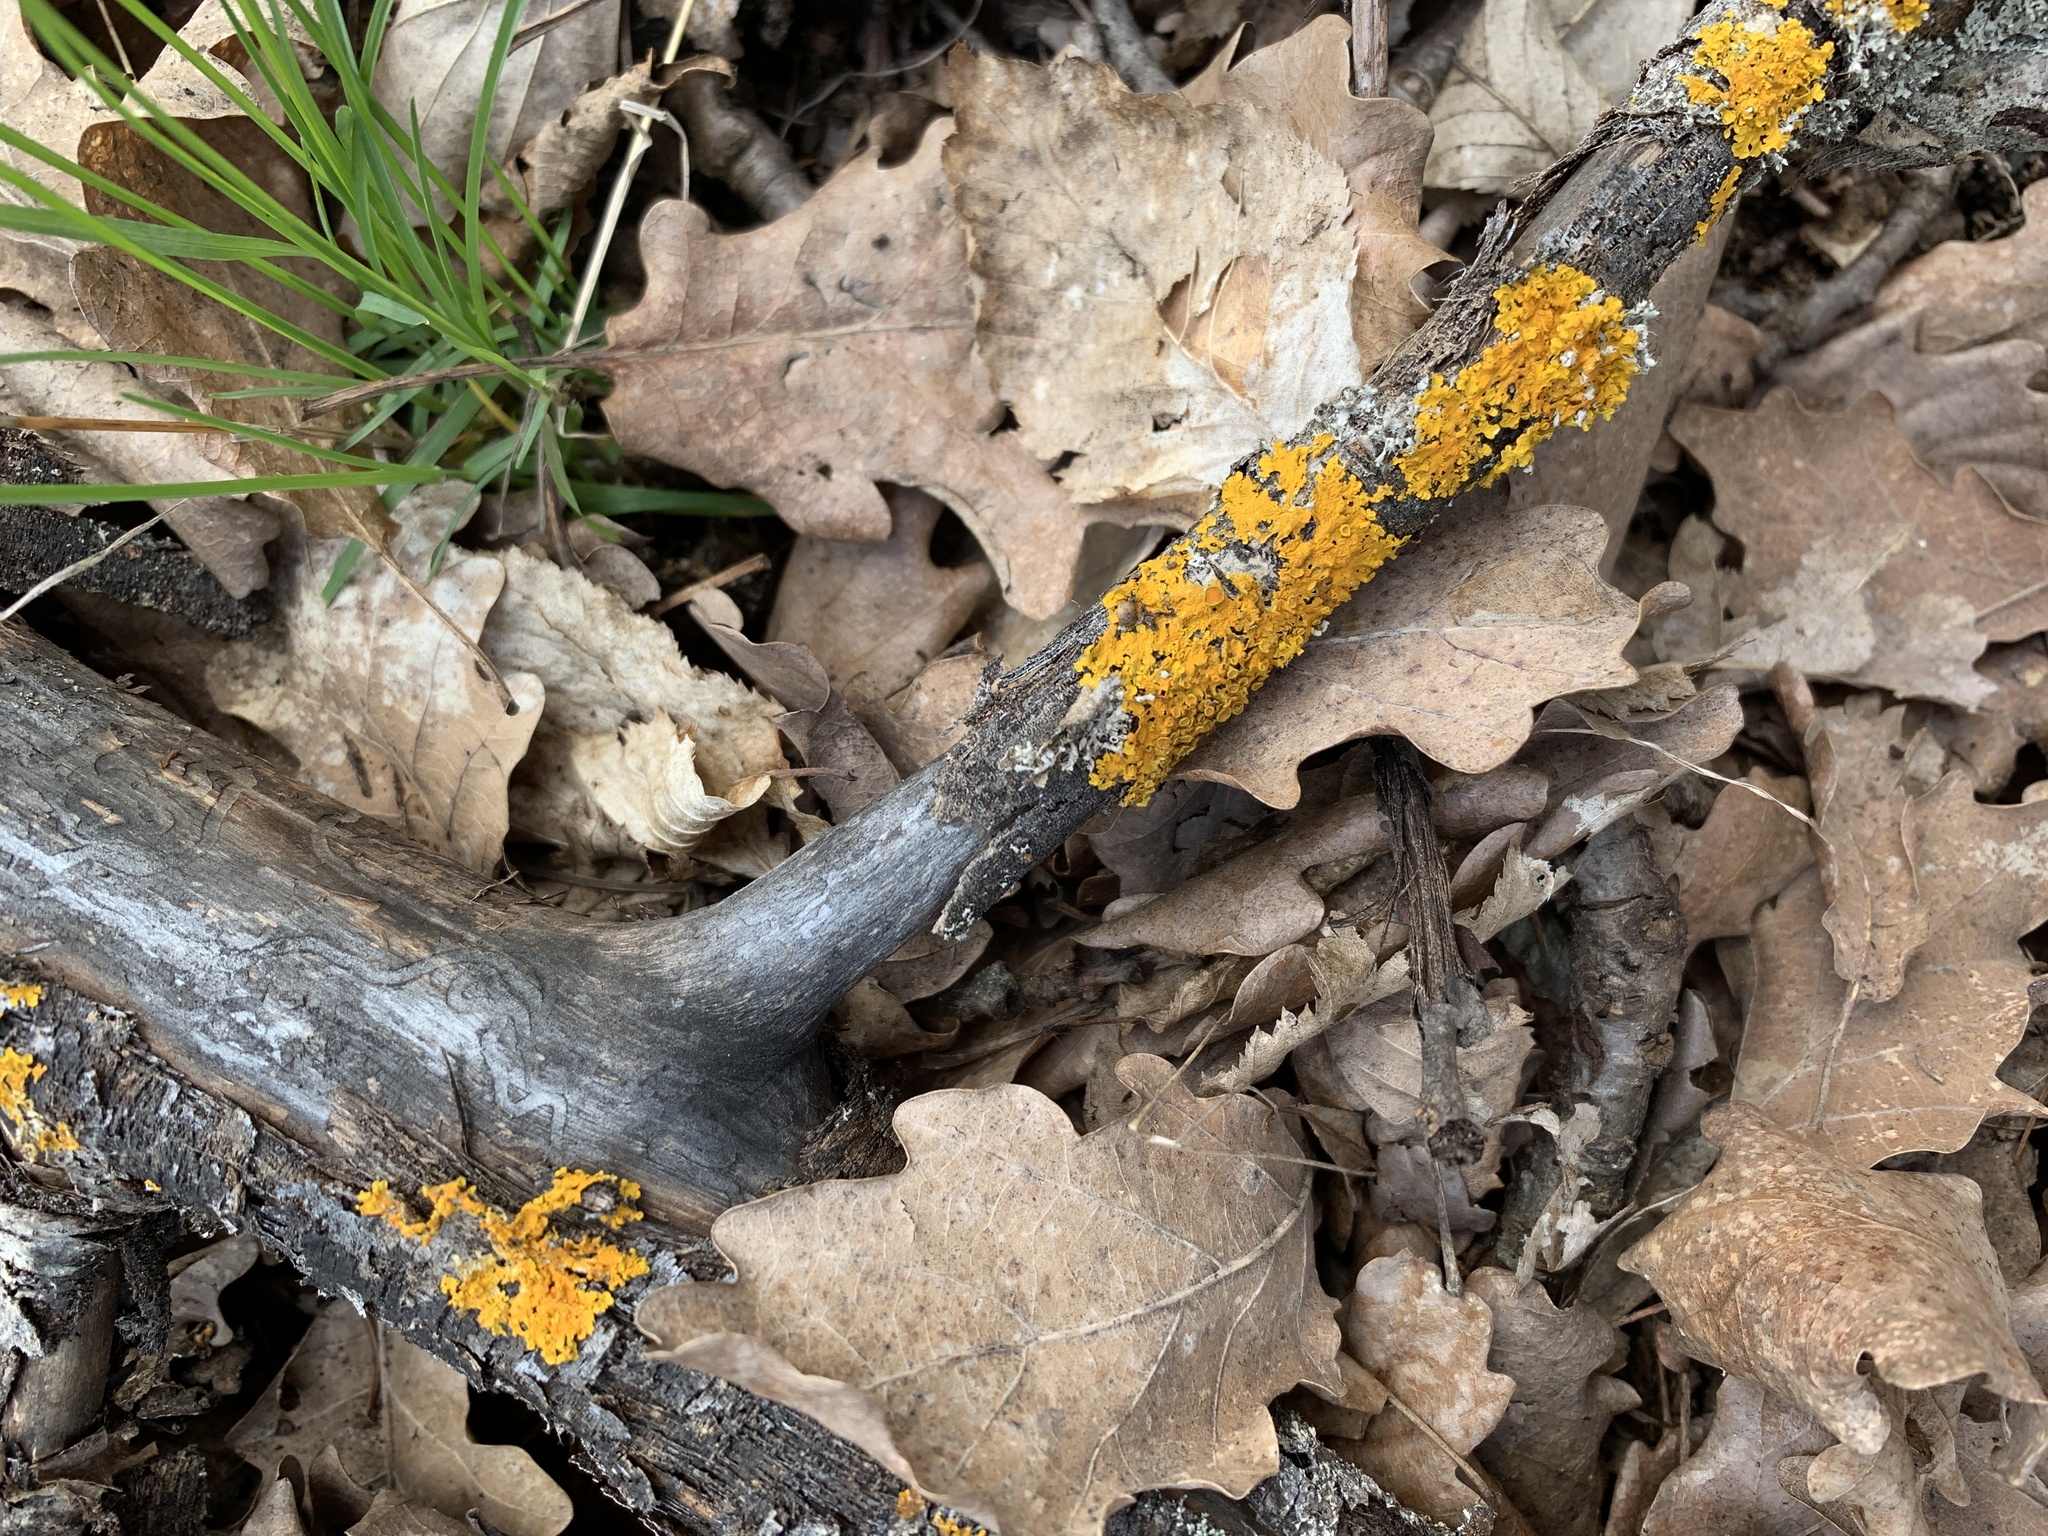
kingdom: Fungi
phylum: Ascomycota
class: Lecanoromycetes
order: Teloschistales
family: Teloschistaceae
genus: Xanthoria
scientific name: Xanthoria parietina
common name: Common orange lichen
